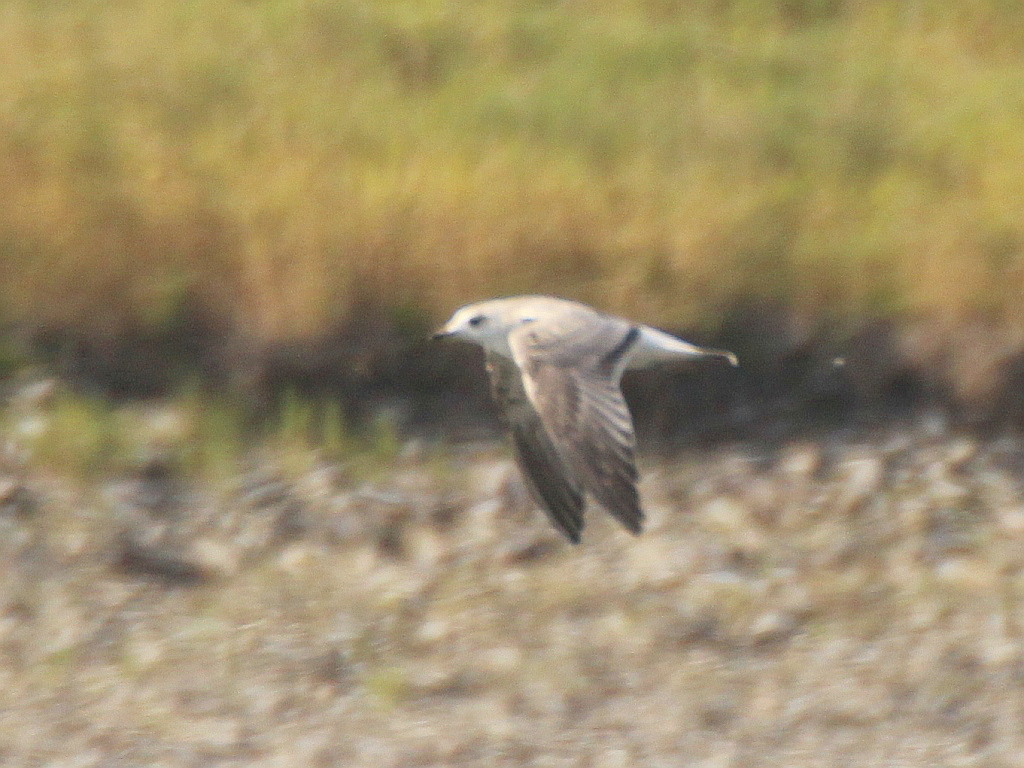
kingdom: Animalia
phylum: Chordata
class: Aves
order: Charadriiformes
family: Laridae
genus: Larus
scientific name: Larus canus
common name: Mew gull
